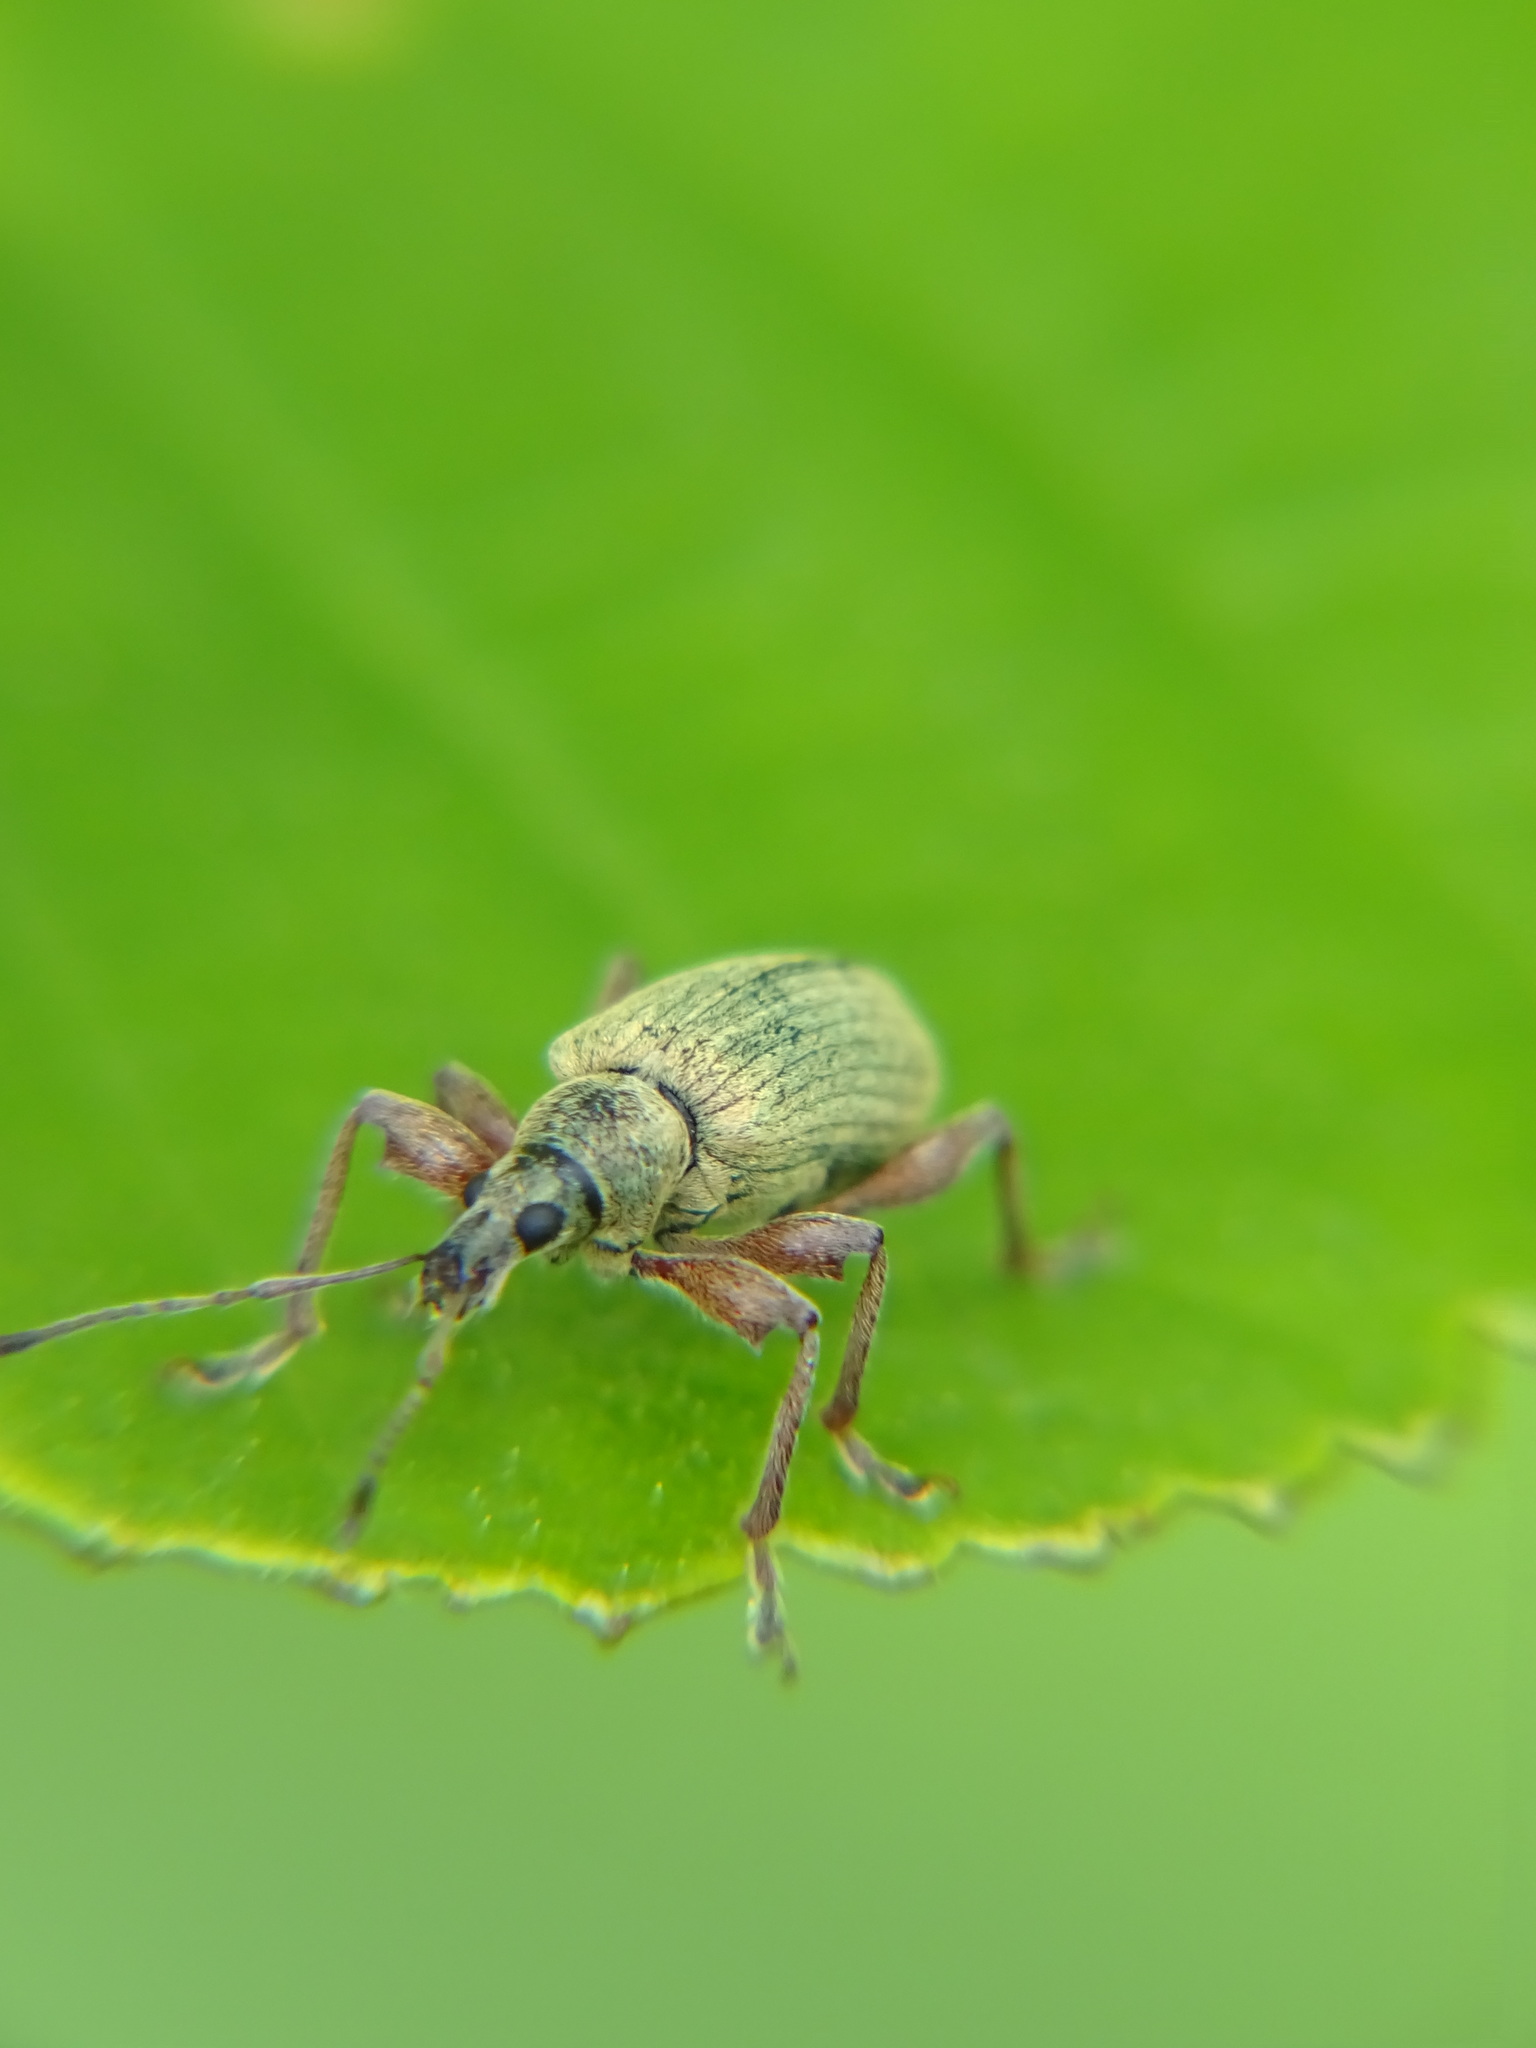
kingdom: Animalia
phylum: Arthropoda
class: Insecta
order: Coleoptera
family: Curculionidae
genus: Phyllobius
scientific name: Phyllobius glaucus
